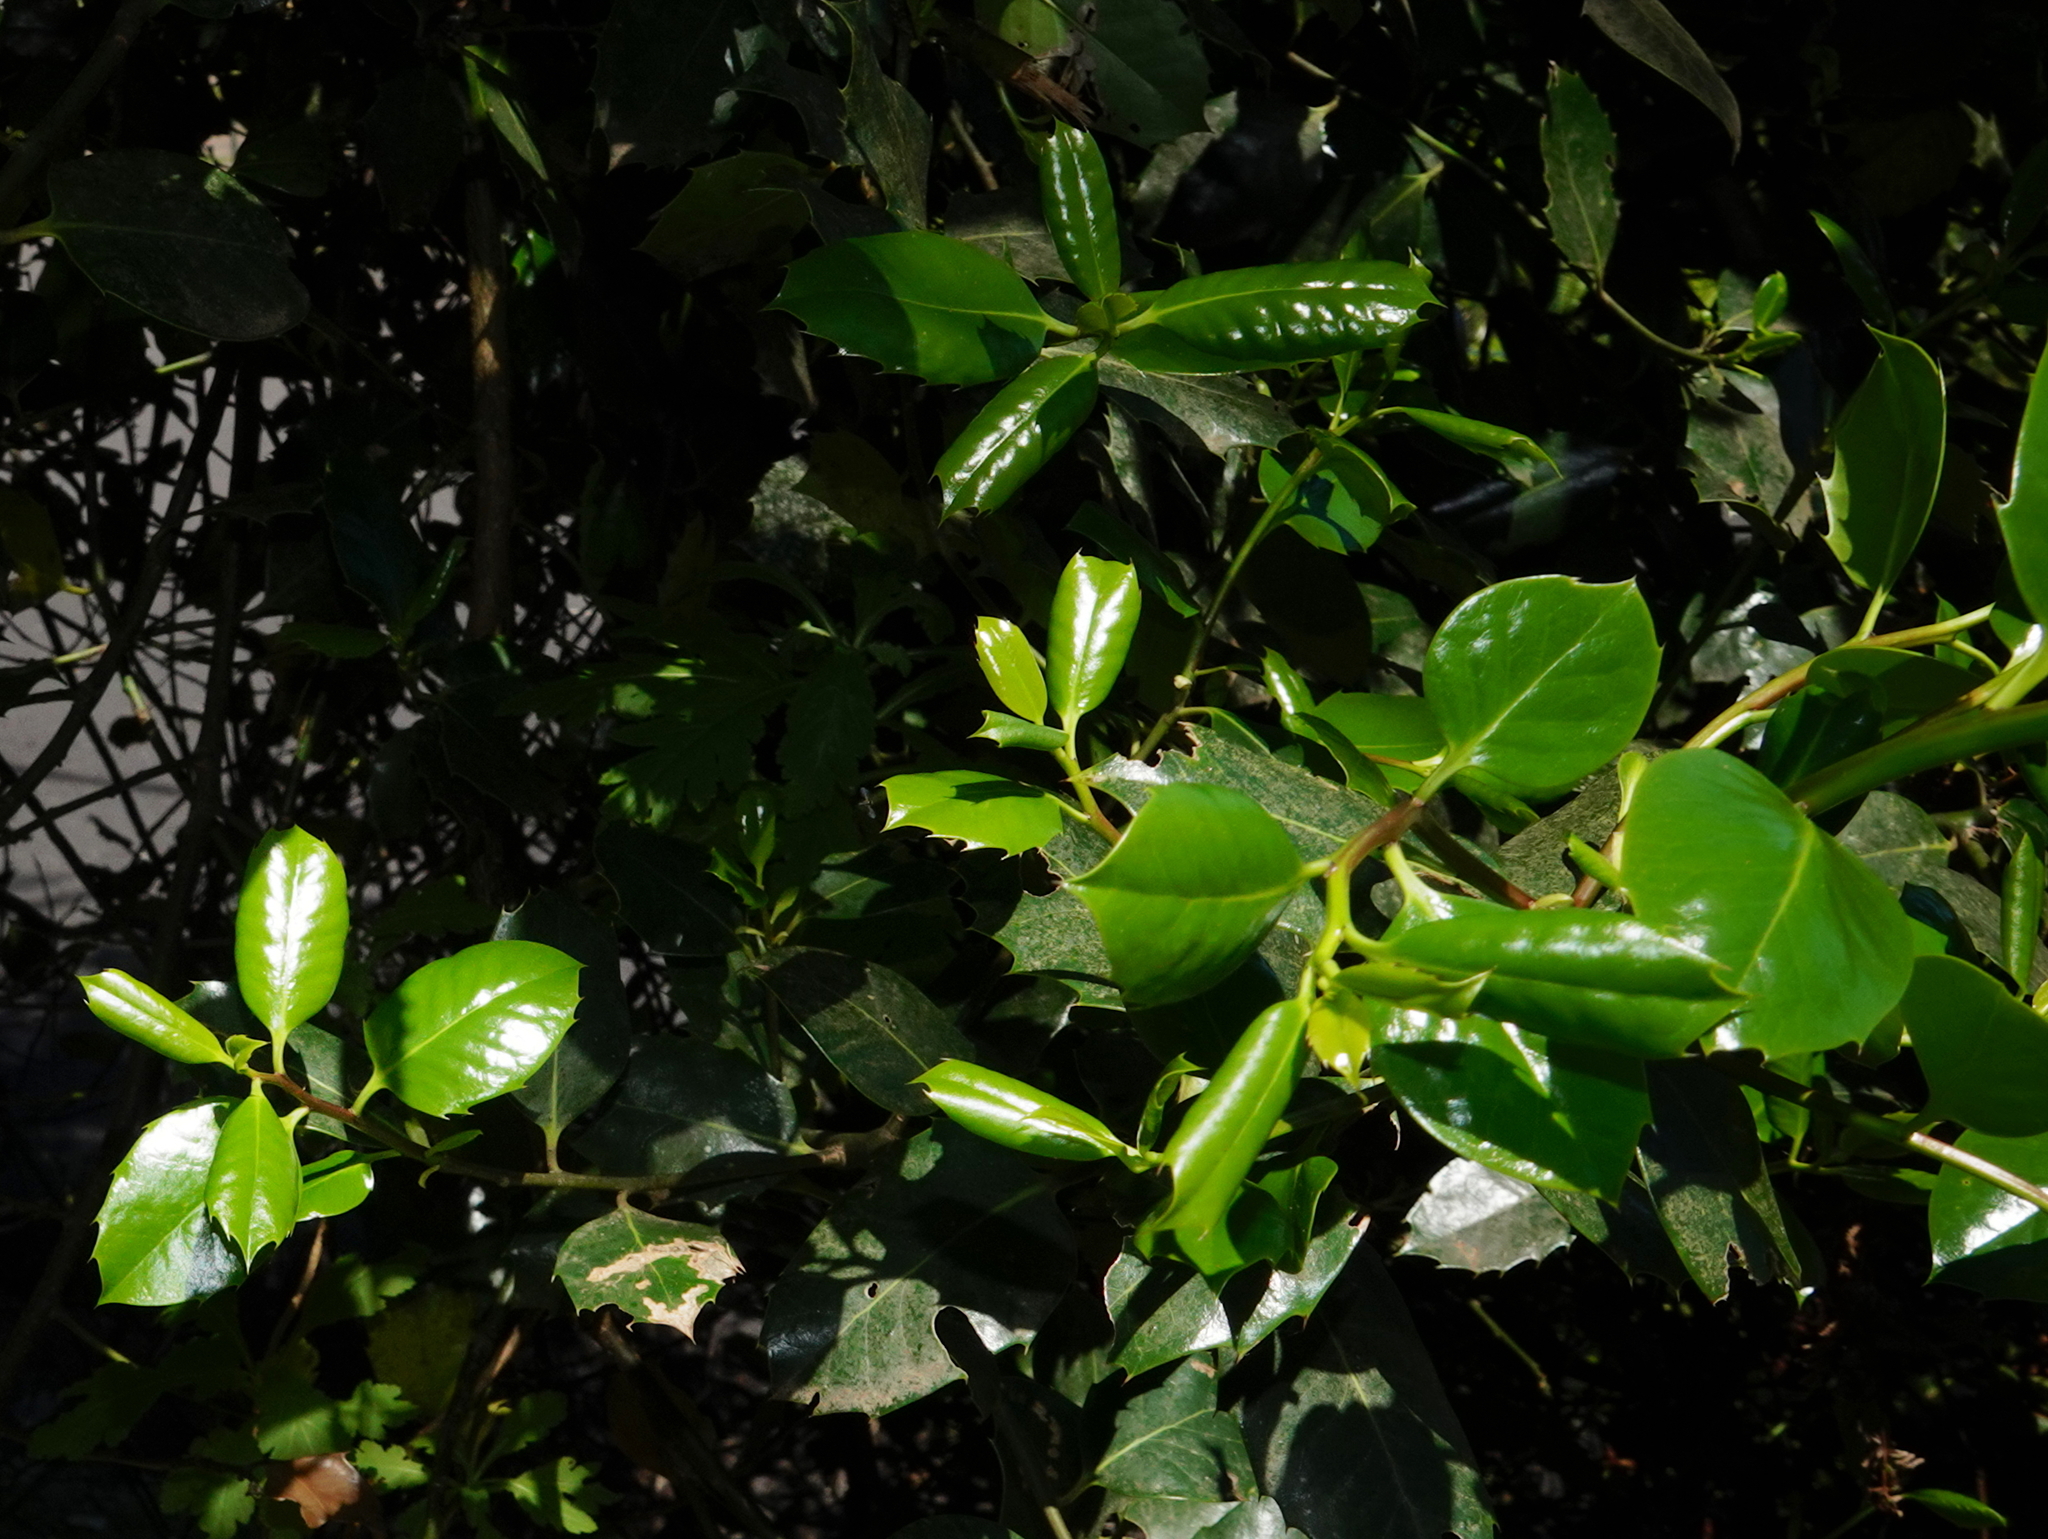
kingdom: Plantae
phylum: Tracheophyta
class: Magnoliopsida
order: Aquifoliales
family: Aquifoliaceae
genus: Ilex
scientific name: Ilex perado
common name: Madeira holly
